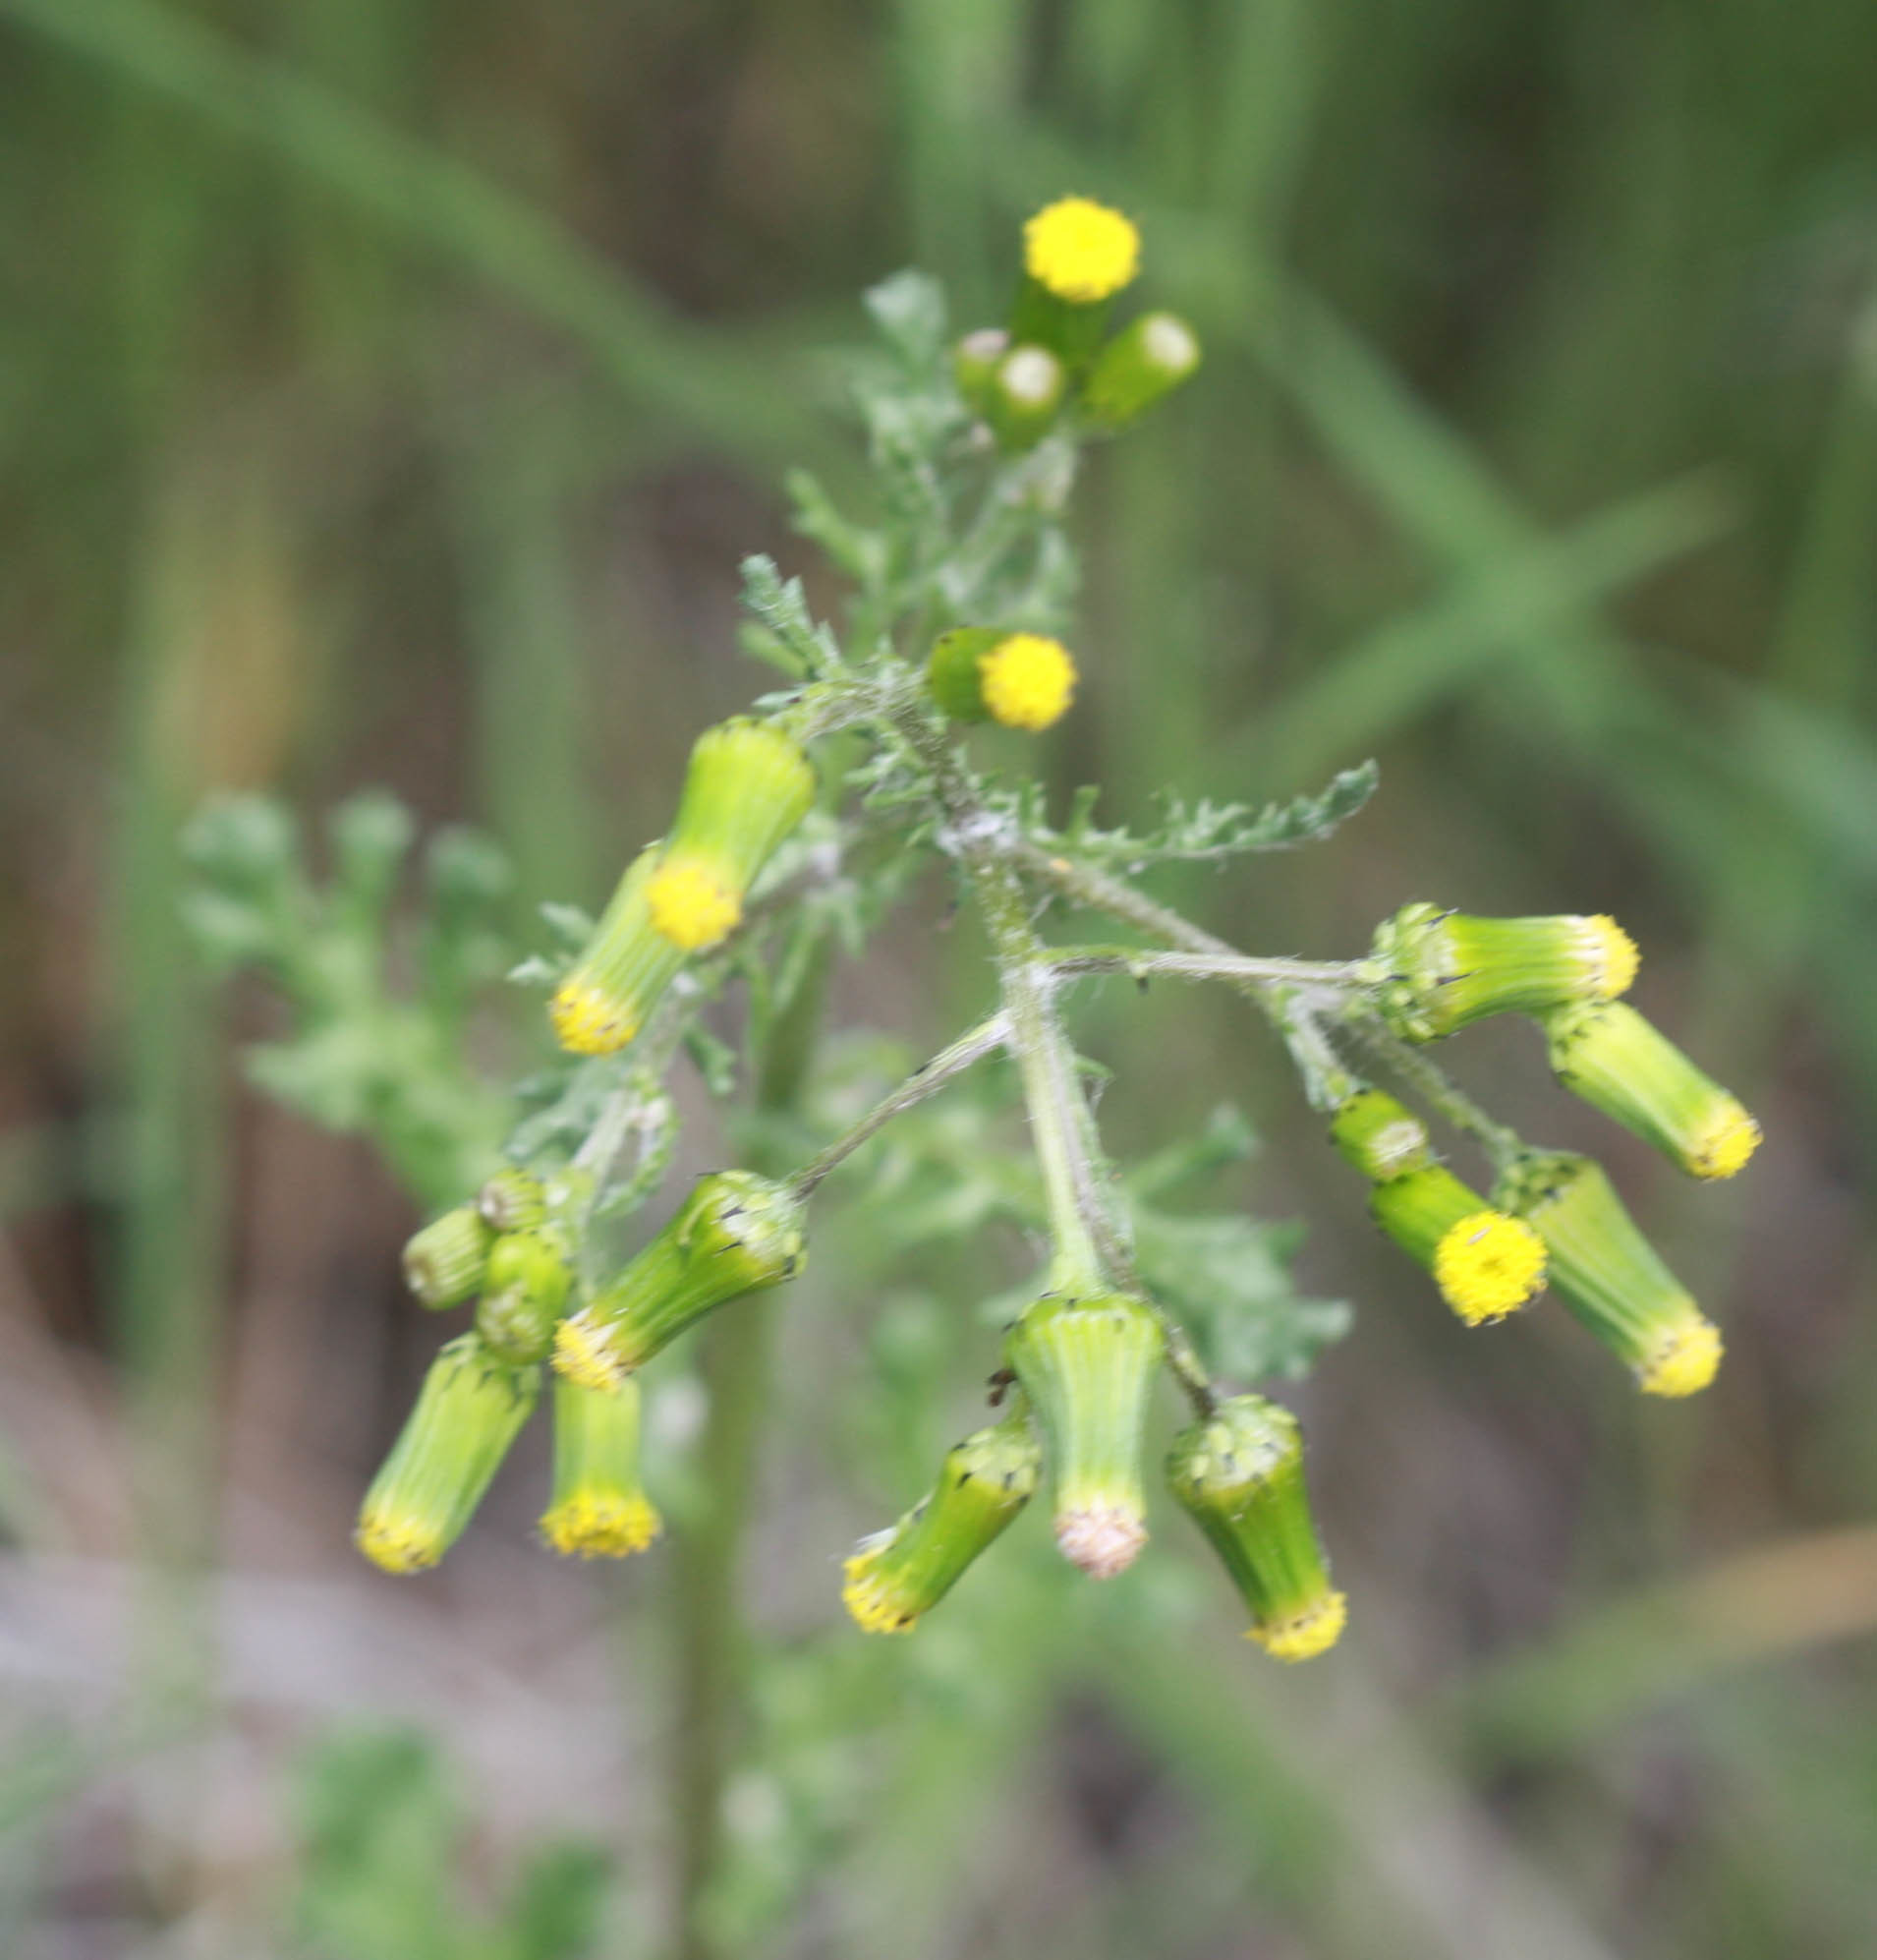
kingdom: Plantae
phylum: Tracheophyta
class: Magnoliopsida
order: Asterales
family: Asteraceae
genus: Senecio
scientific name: Senecio vulgaris
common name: Old-man-in-the-spring
